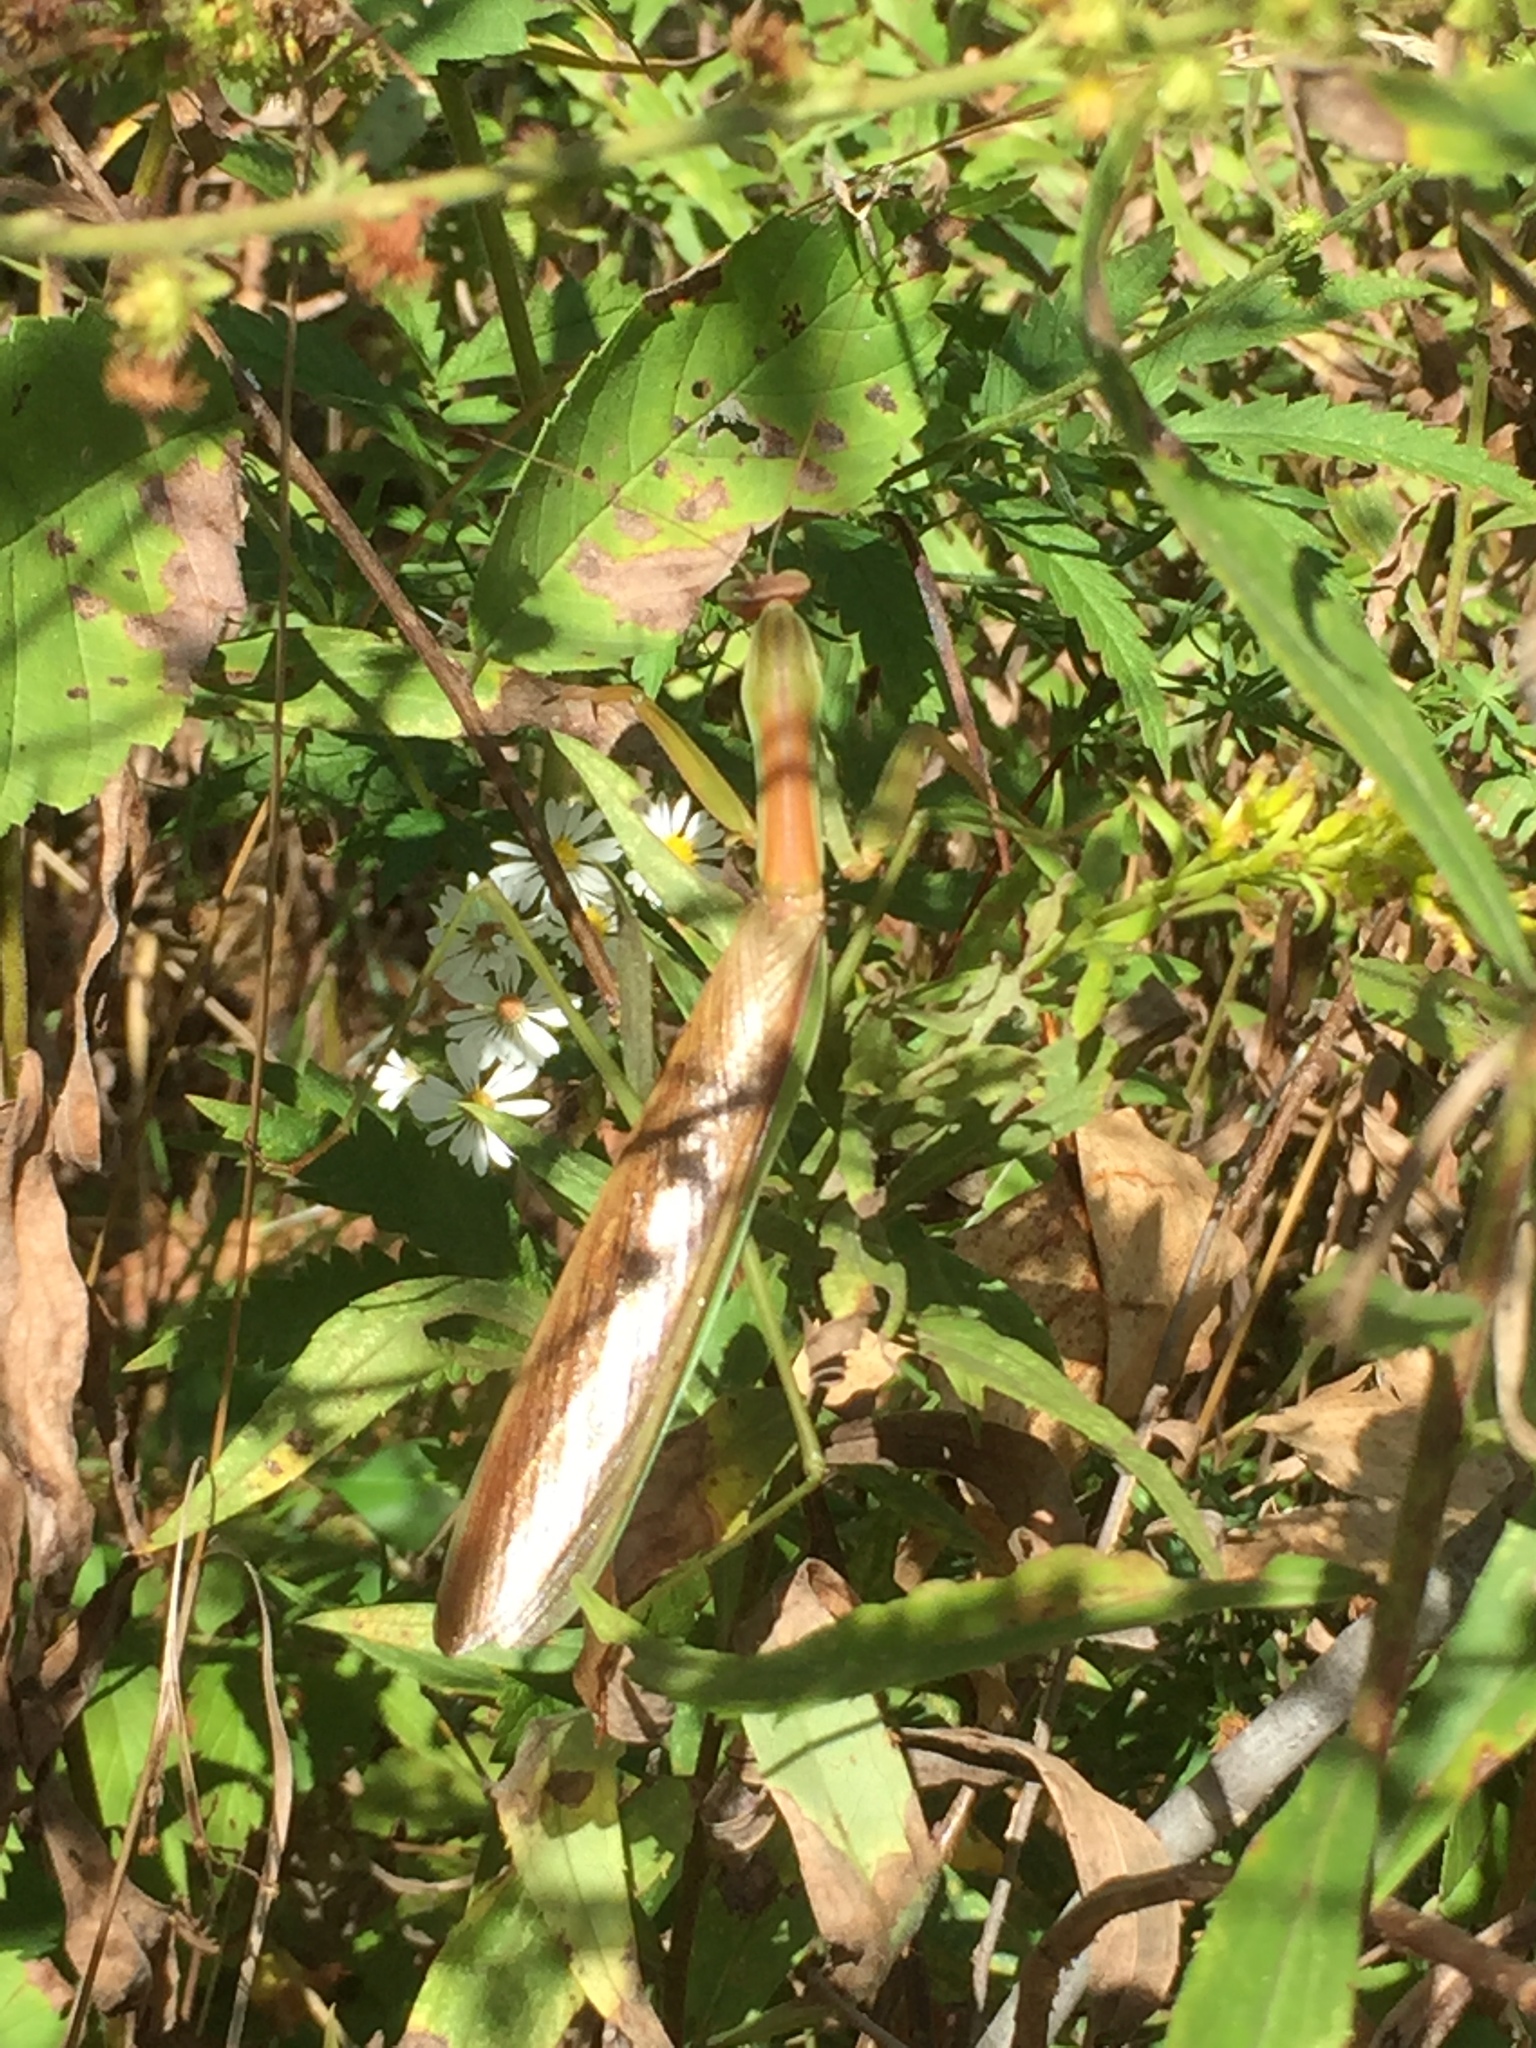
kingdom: Animalia
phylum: Arthropoda
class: Insecta
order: Mantodea
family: Mantidae
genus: Tenodera
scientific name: Tenodera sinensis
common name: Chinese mantis
